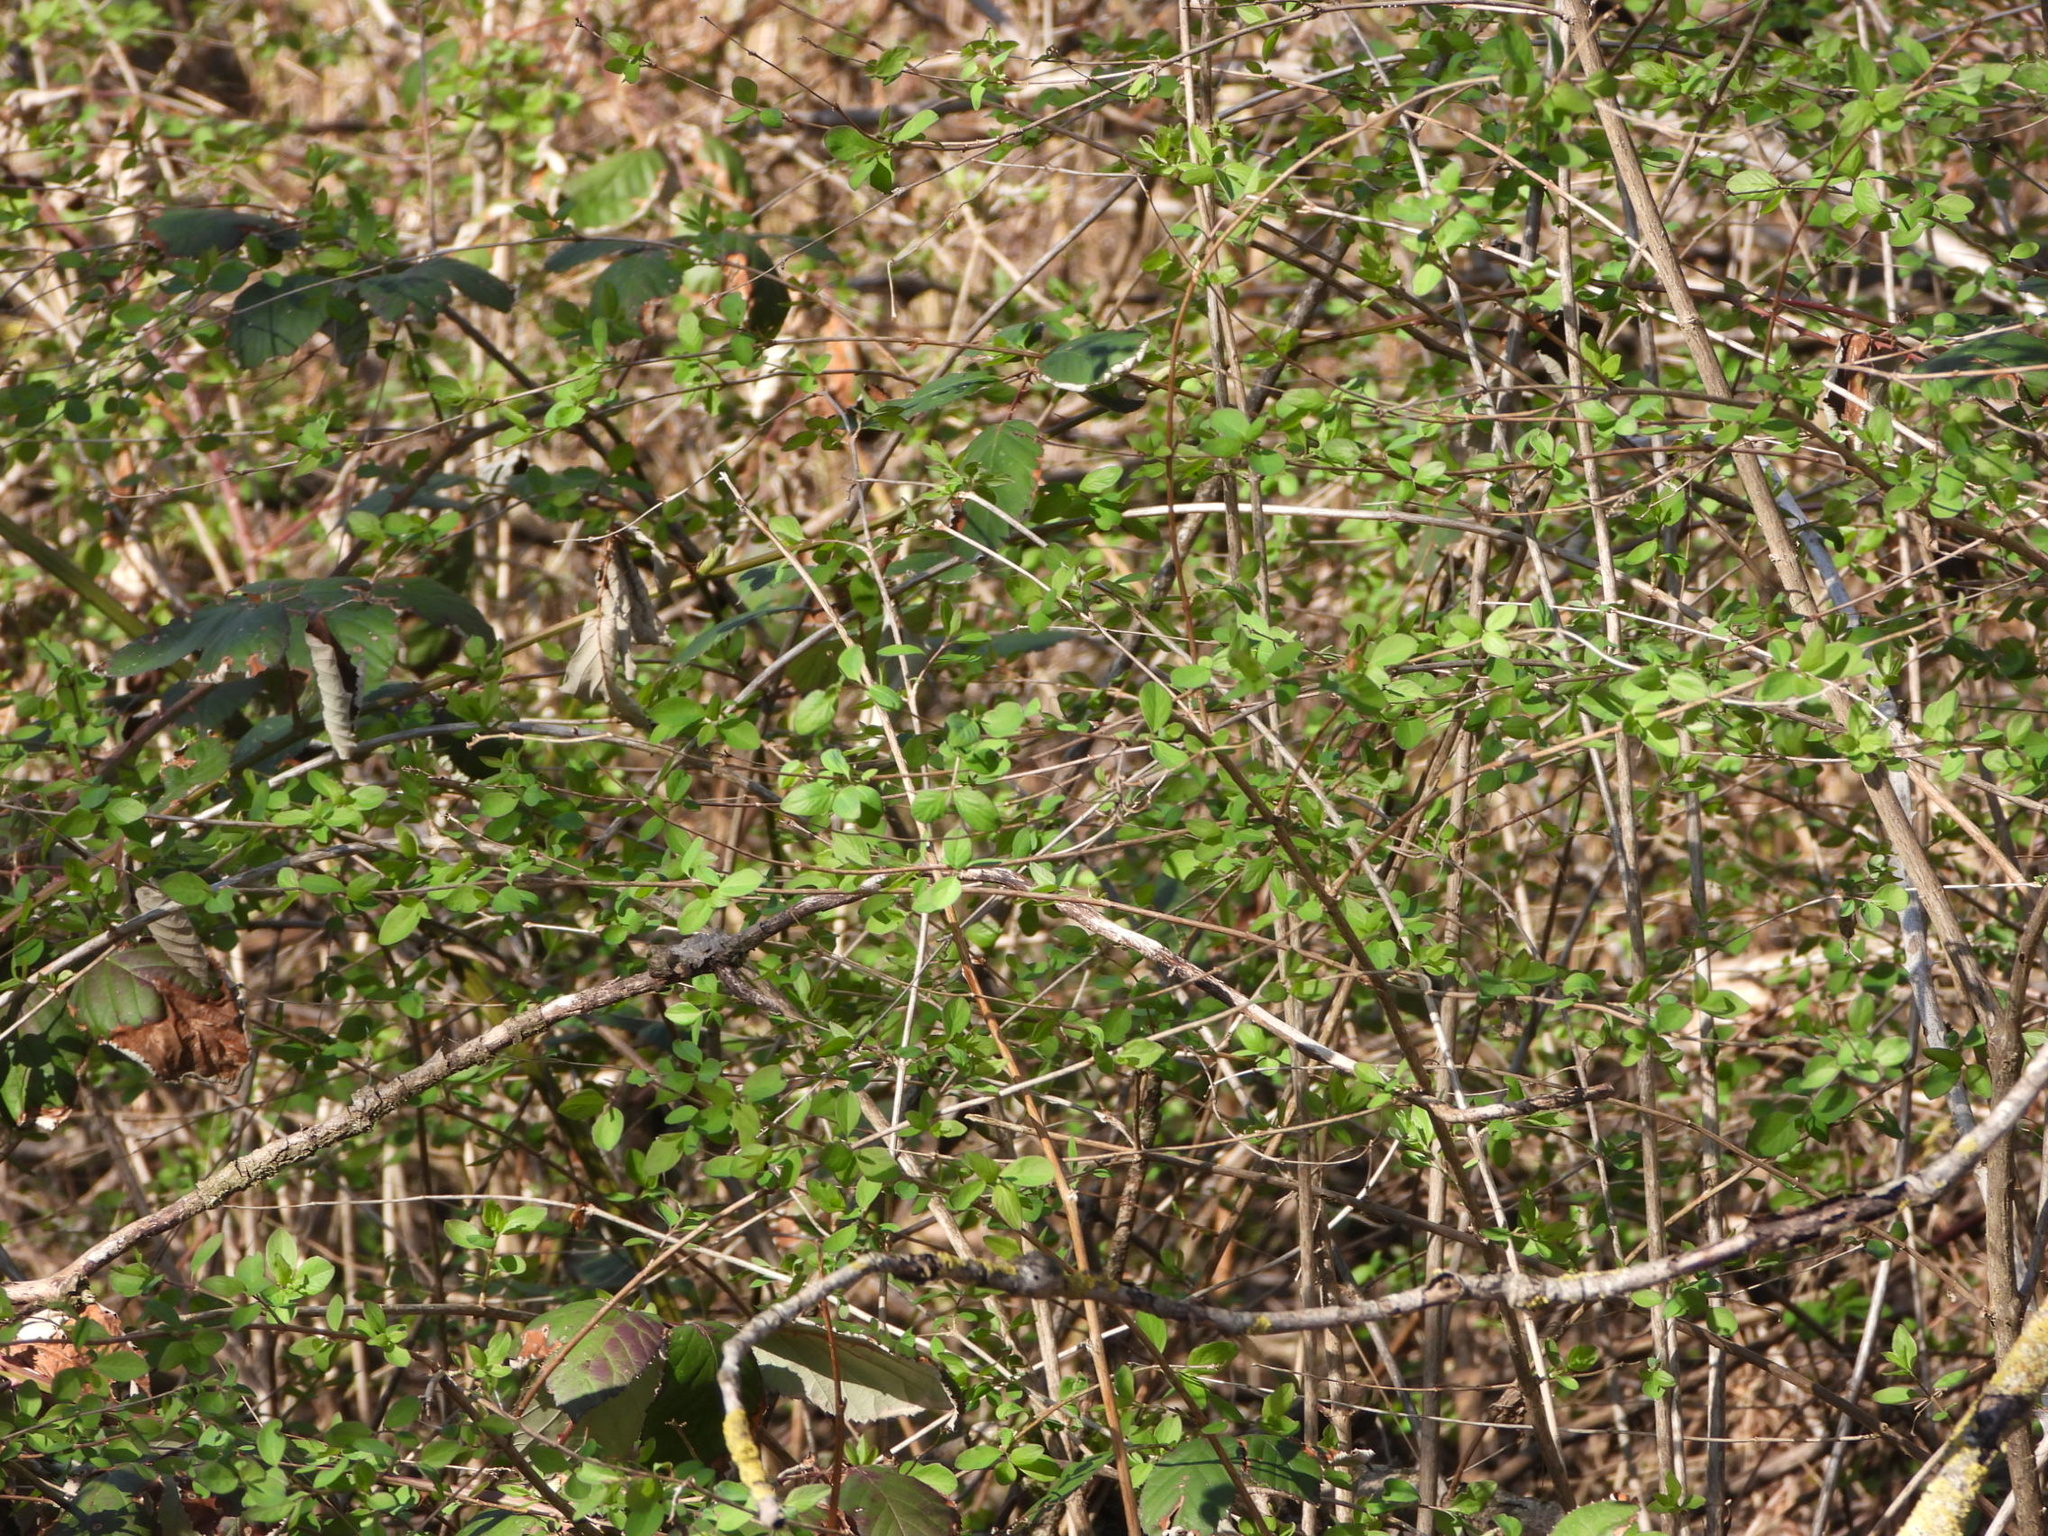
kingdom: Plantae
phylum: Tracheophyta
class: Magnoliopsida
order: Dipsacales
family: Caprifoliaceae
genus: Symphoricarpos
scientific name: Symphoricarpos albus
